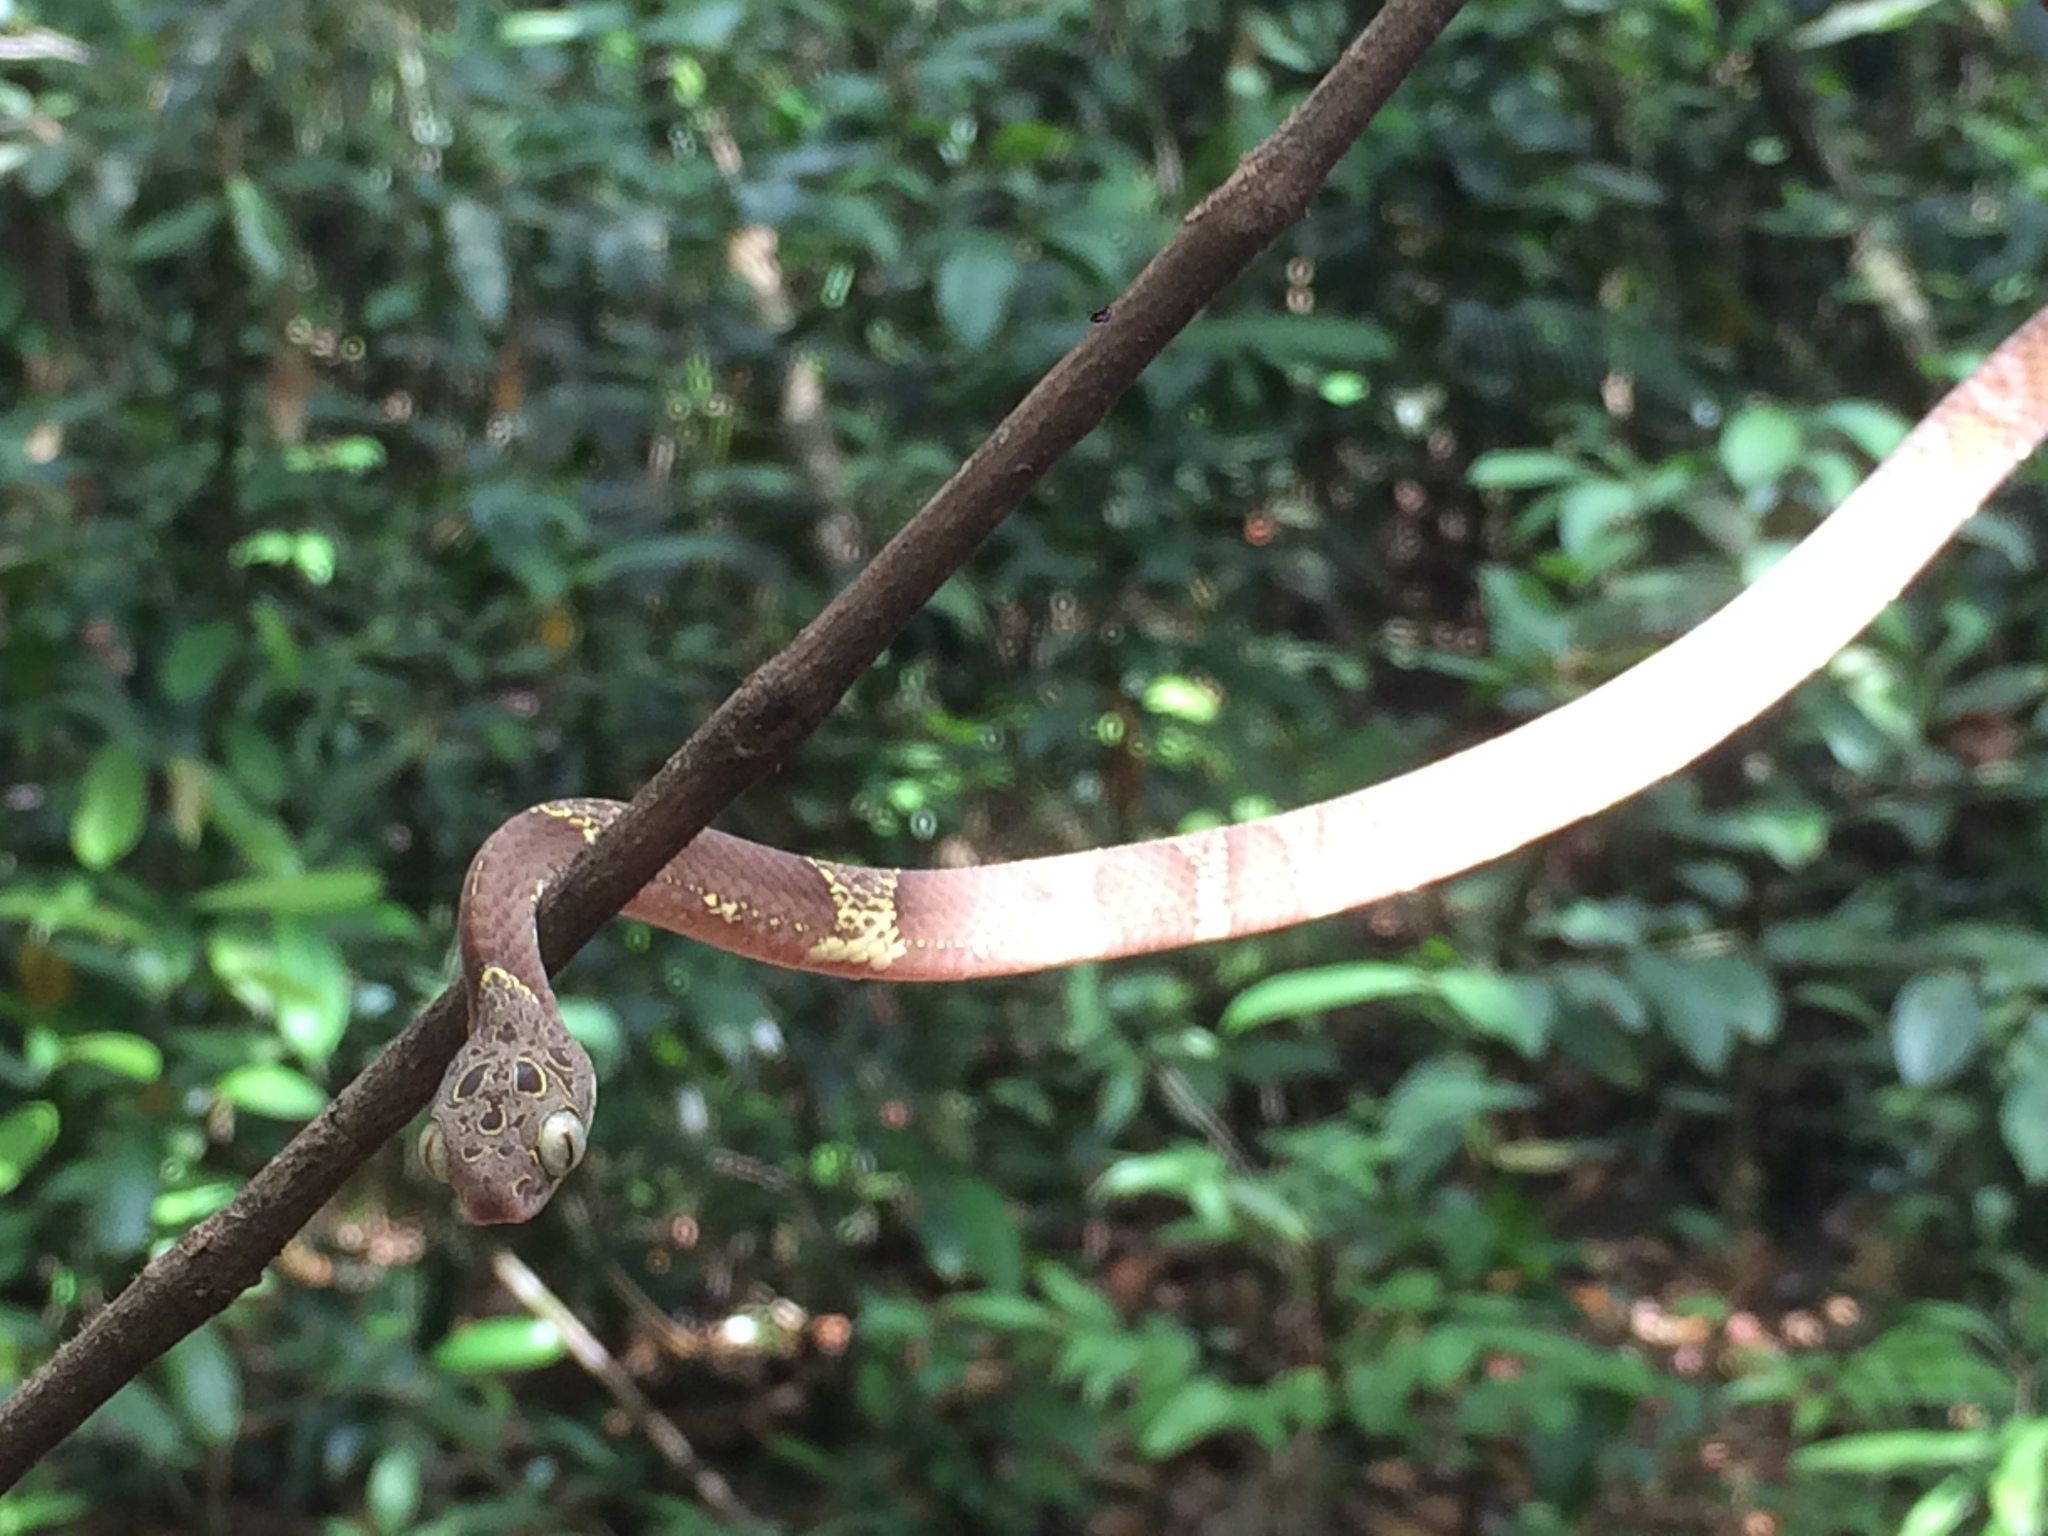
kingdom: Animalia
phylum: Chordata
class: Squamata
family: Colubridae
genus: Dipsas
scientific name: Dipsas indica
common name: Neotropical snail-eater
